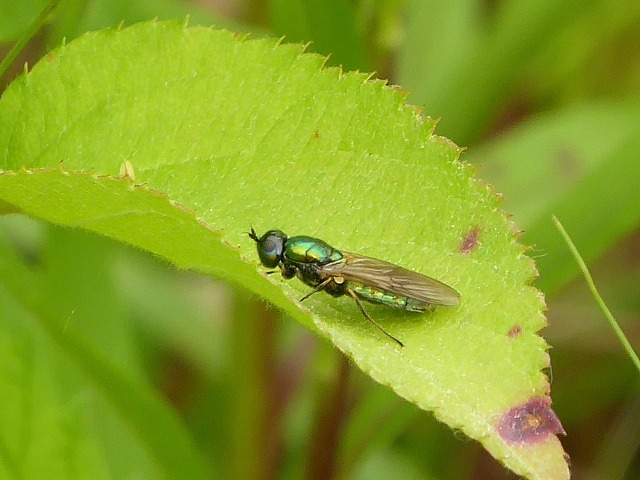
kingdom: Animalia
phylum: Arthropoda
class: Insecta
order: Diptera
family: Stratiomyidae
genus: Chloromyia
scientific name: Chloromyia formosa
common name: Soldier fly
